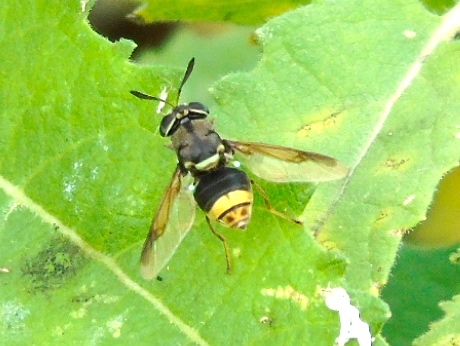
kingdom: Animalia
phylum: Arthropoda
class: Insecta
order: Diptera
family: Stratiomyidae
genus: Hoplitimyia
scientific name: Hoplitimyia
